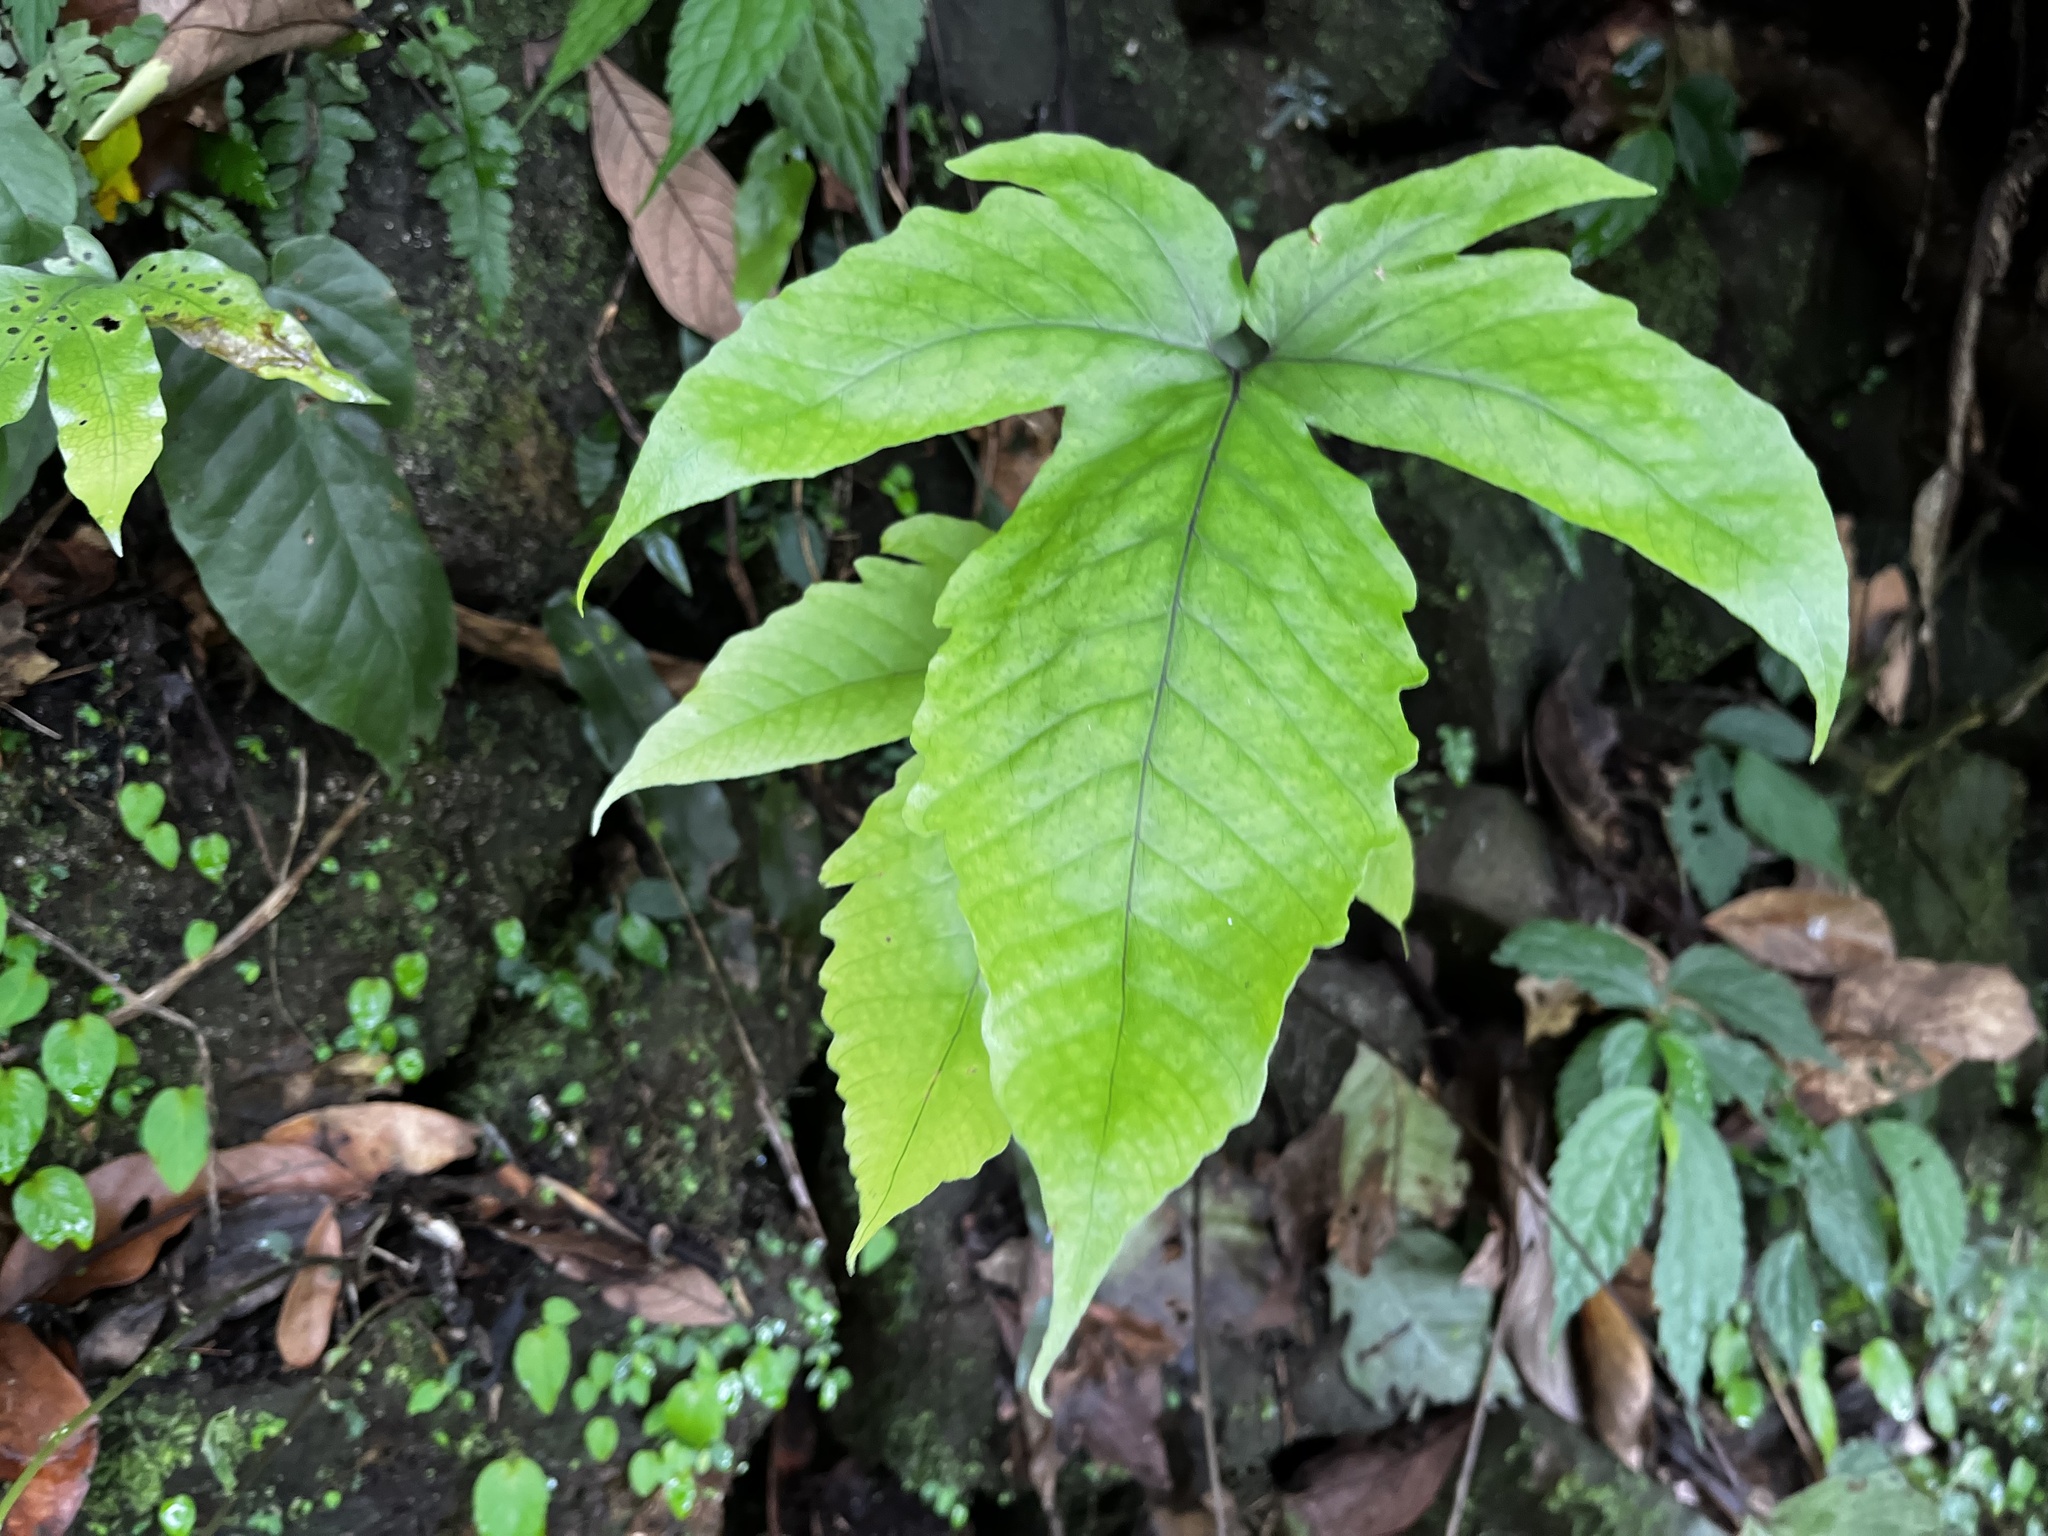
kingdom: Plantae
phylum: Tracheophyta
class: Polypodiopsida
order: Polypodiales
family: Tectariaceae
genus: Tectaria
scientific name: Tectaria subtriphylla
